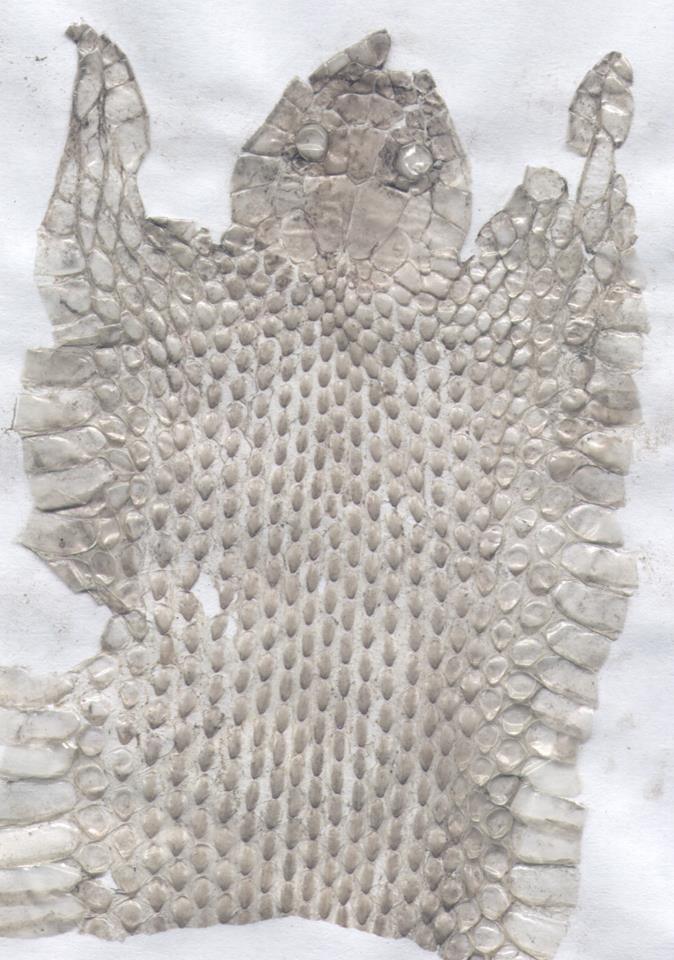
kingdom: Animalia
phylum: Chordata
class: Squamata
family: Colubridae
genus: Natrix
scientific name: Natrix tessellata
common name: Dice snake
